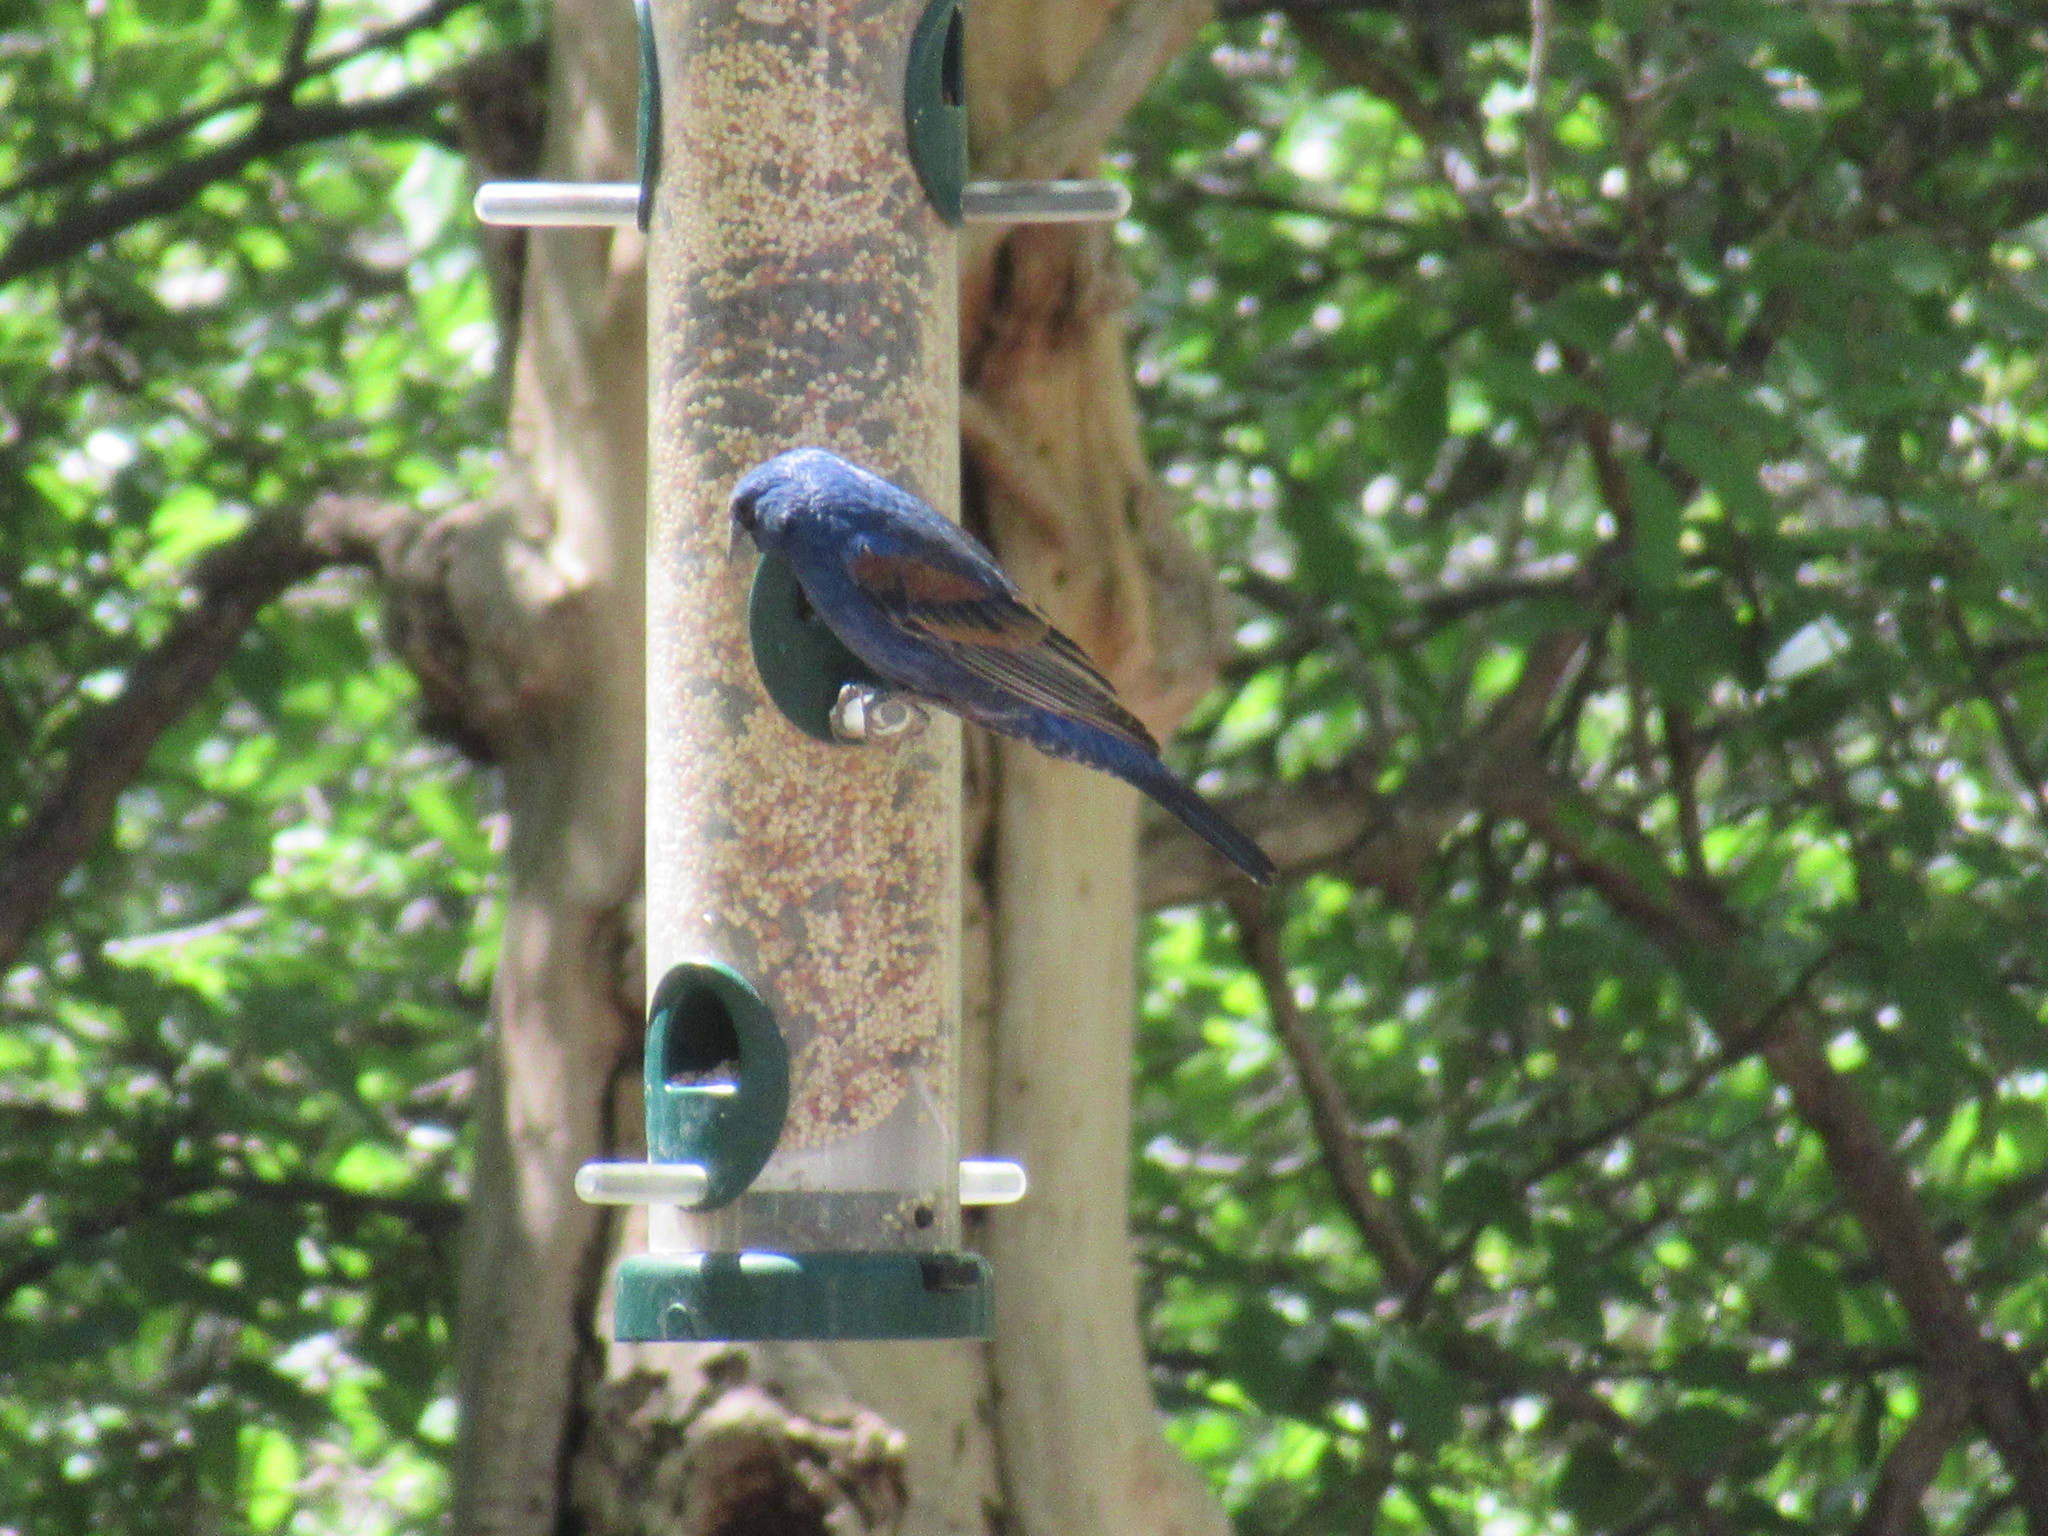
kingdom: Animalia
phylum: Chordata
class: Aves
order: Passeriformes
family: Cardinalidae
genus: Passerina
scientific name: Passerina caerulea
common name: Blue grosbeak
